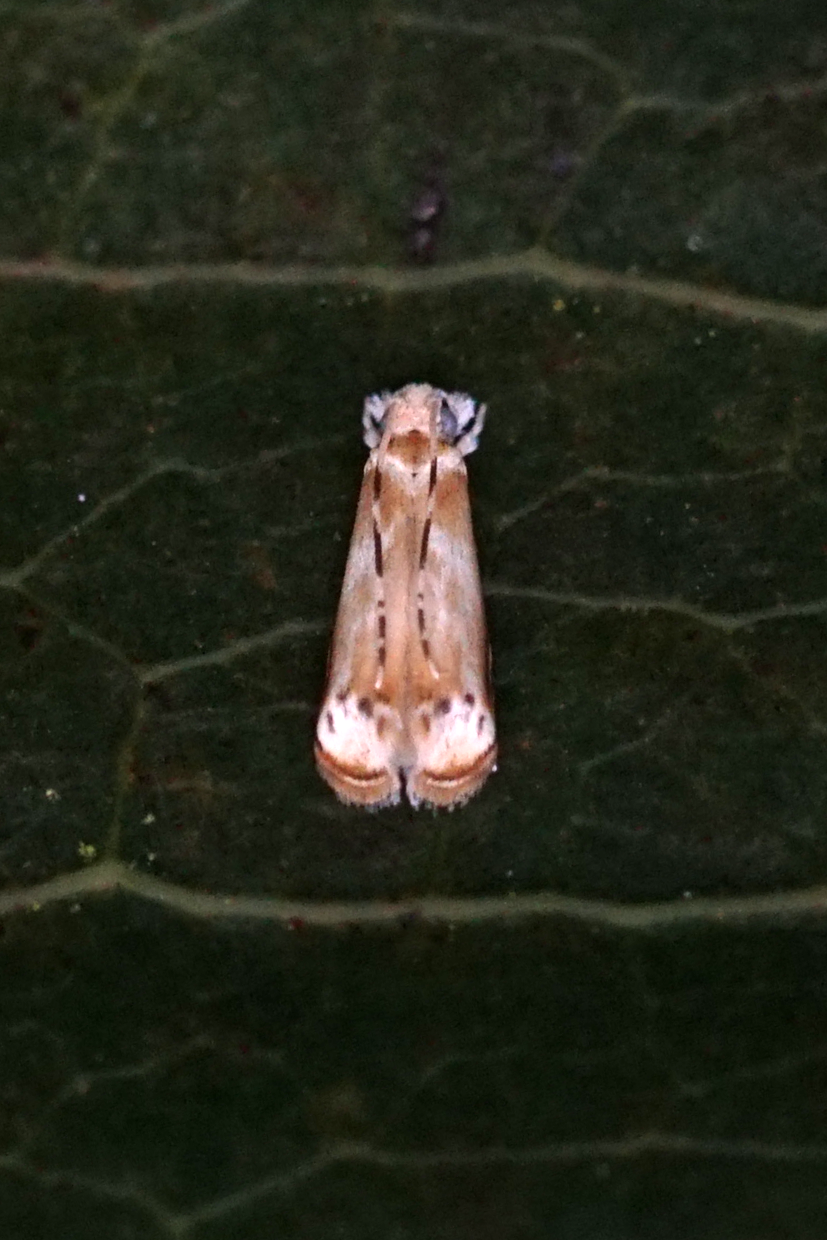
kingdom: Animalia
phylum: Arthropoda
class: Insecta
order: Lepidoptera
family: Dryadaulidae
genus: Dryadaula
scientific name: Dryadaula terpsichorella
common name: Dancing moth
